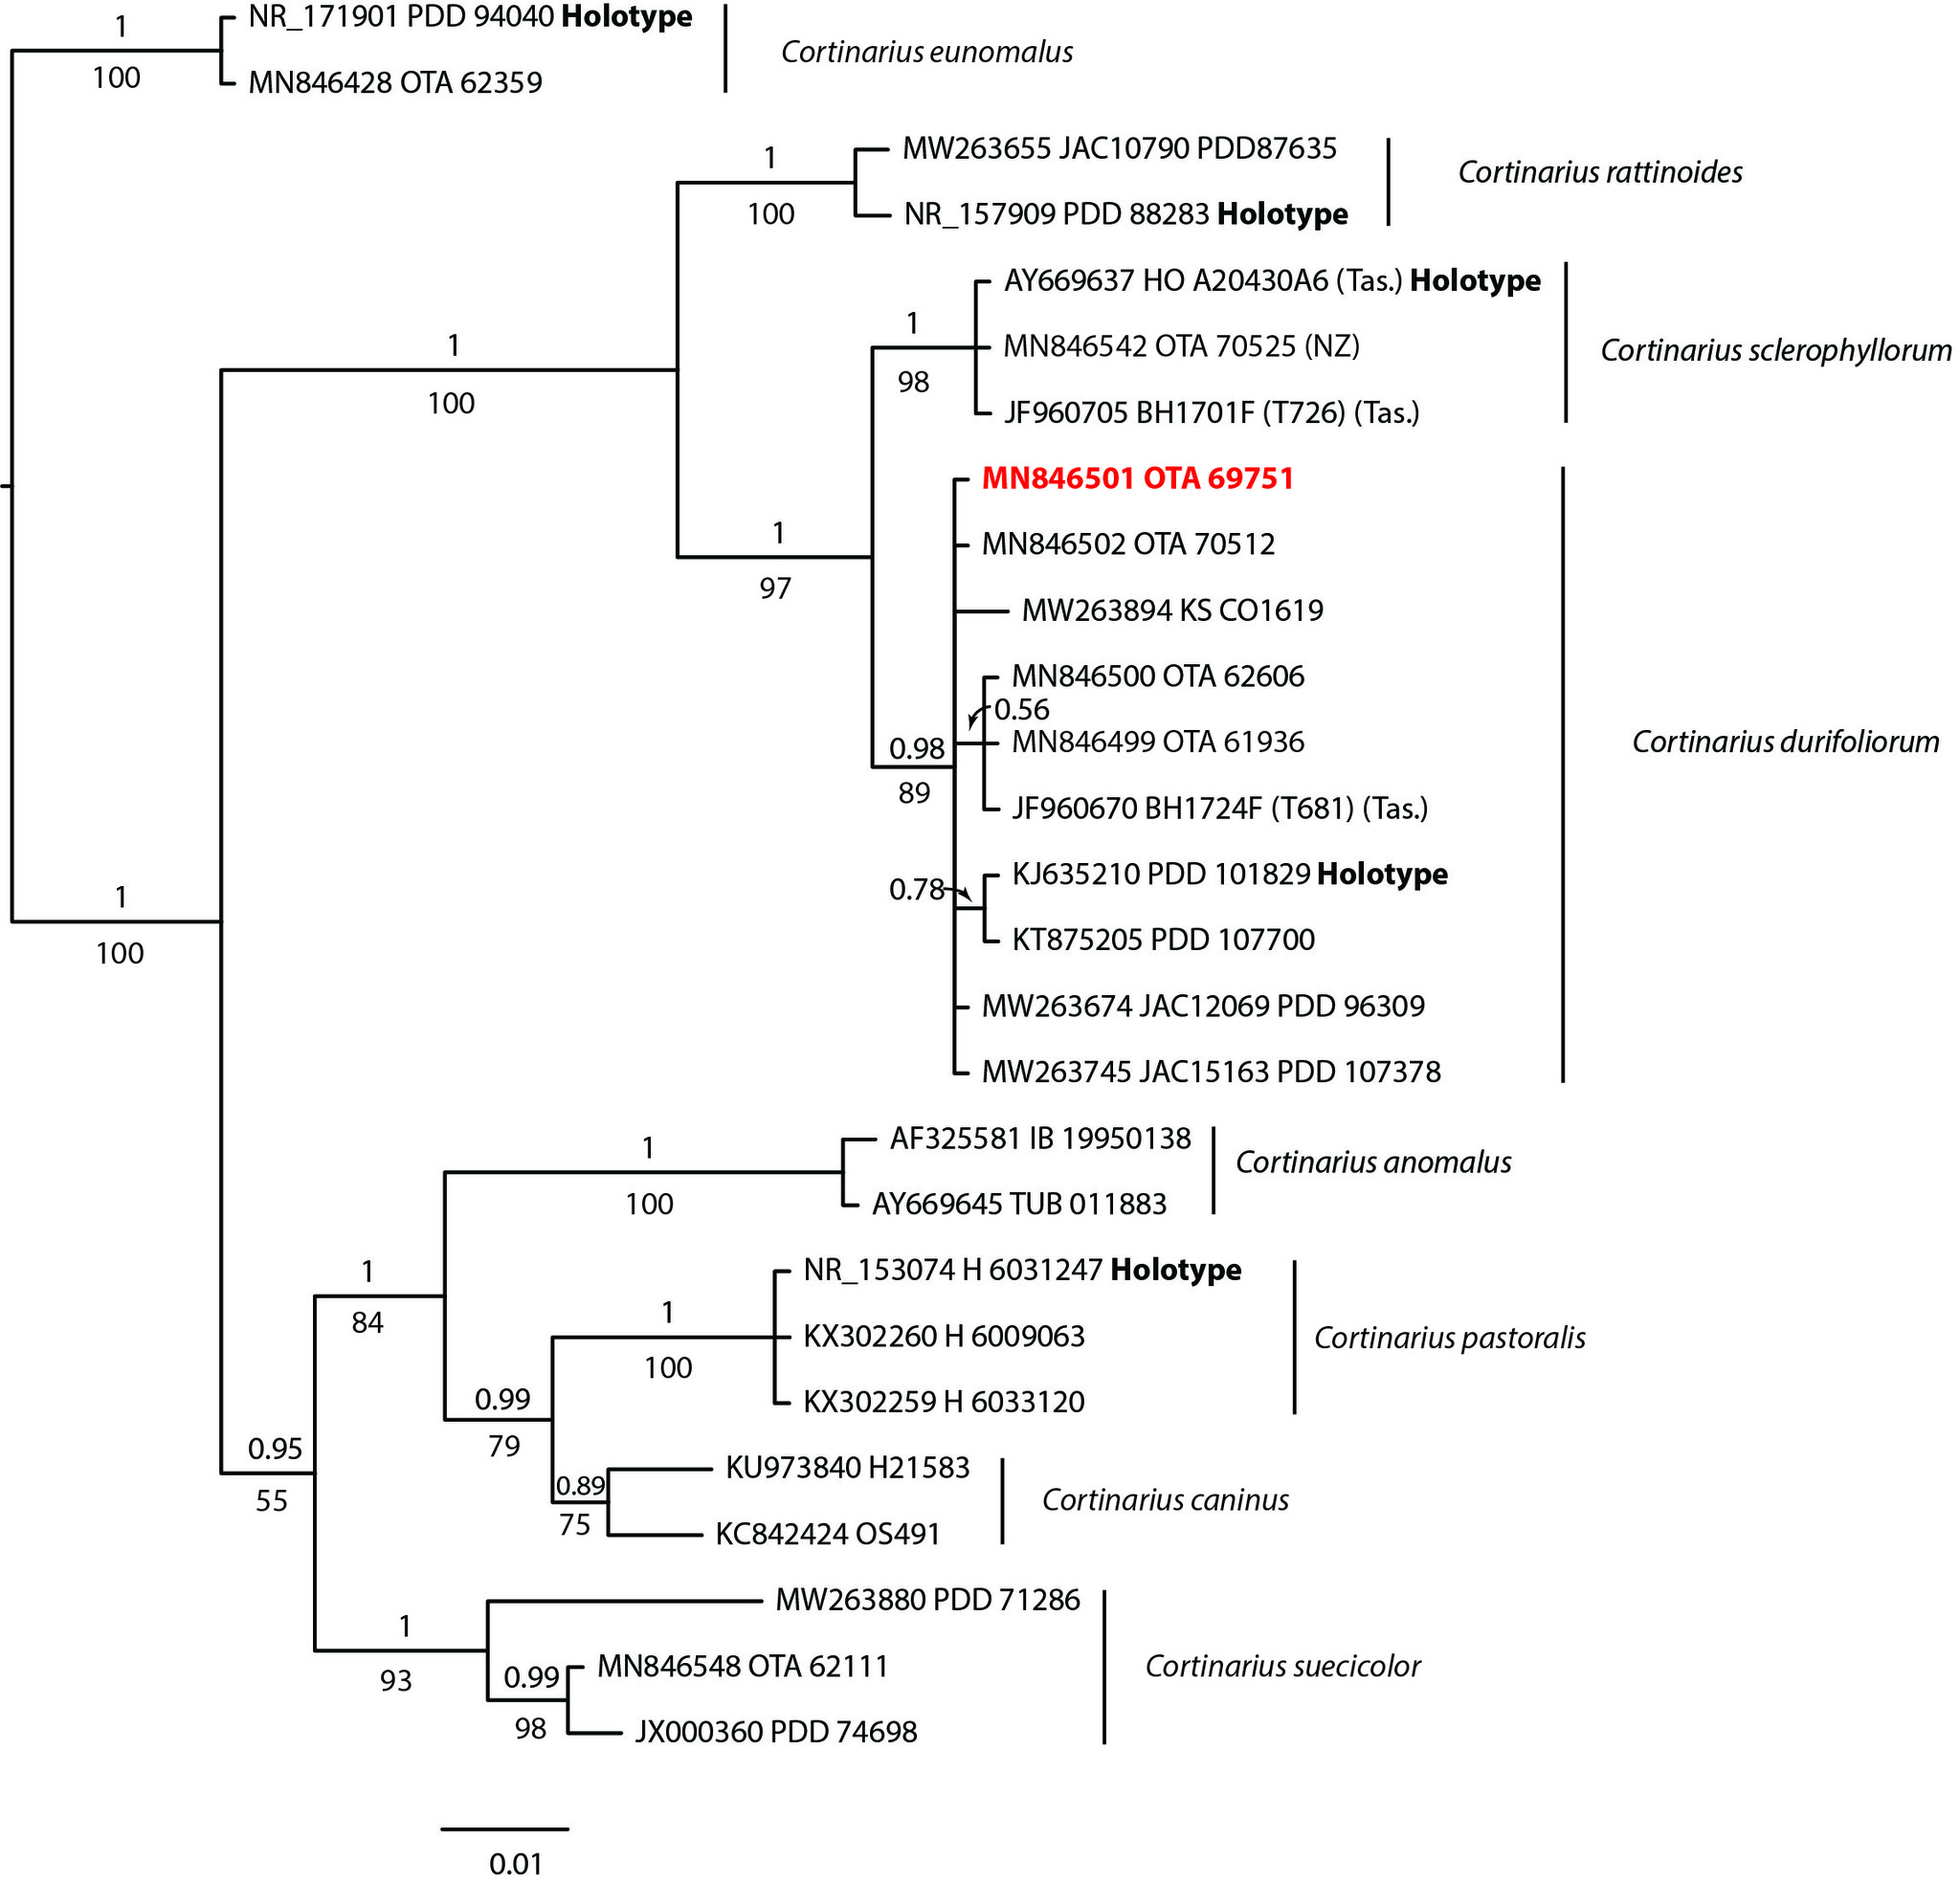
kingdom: Fungi
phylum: Basidiomycota
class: Agaricomycetes
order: Agaricales
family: Cortinariaceae
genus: Cortinarius
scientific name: Cortinarius durifoliorum
